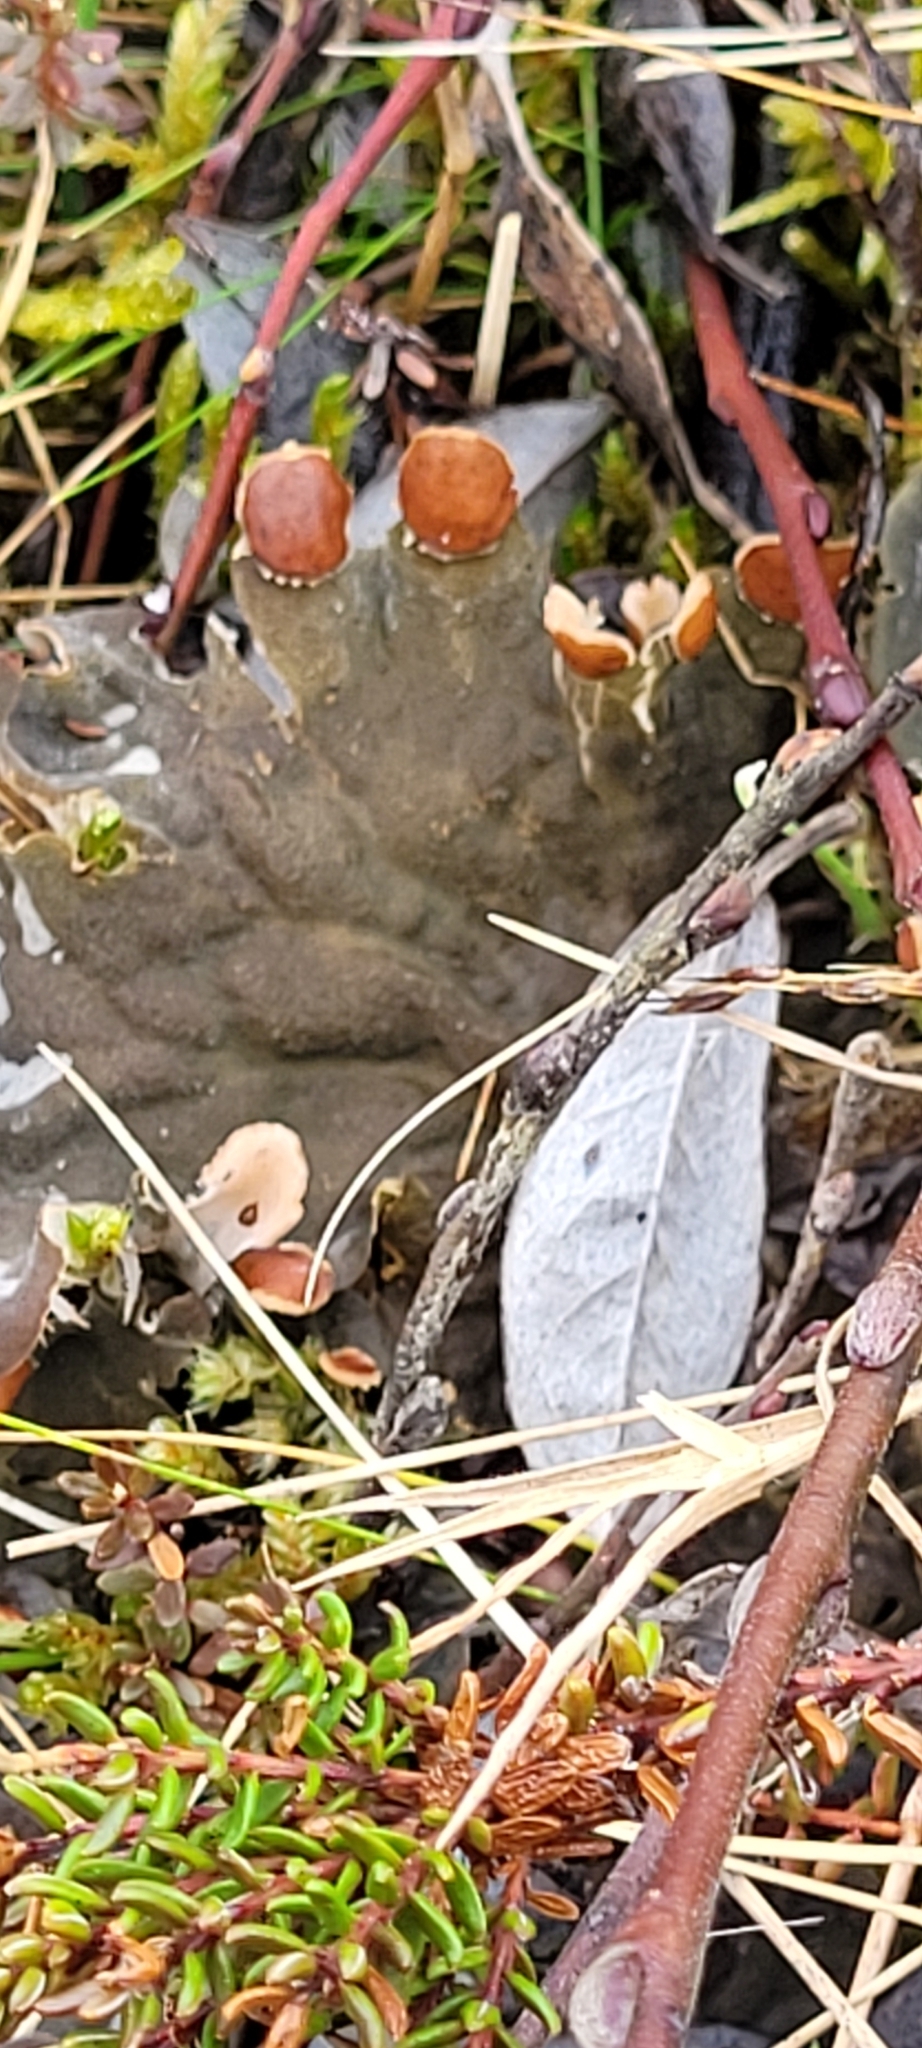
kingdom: Fungi
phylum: Ascomycota
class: Lecanoromycetes
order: Peltigerales
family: Peltigeraceae
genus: Peltigera
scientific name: Peltigera membranacea
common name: Membranous pelt lichen
